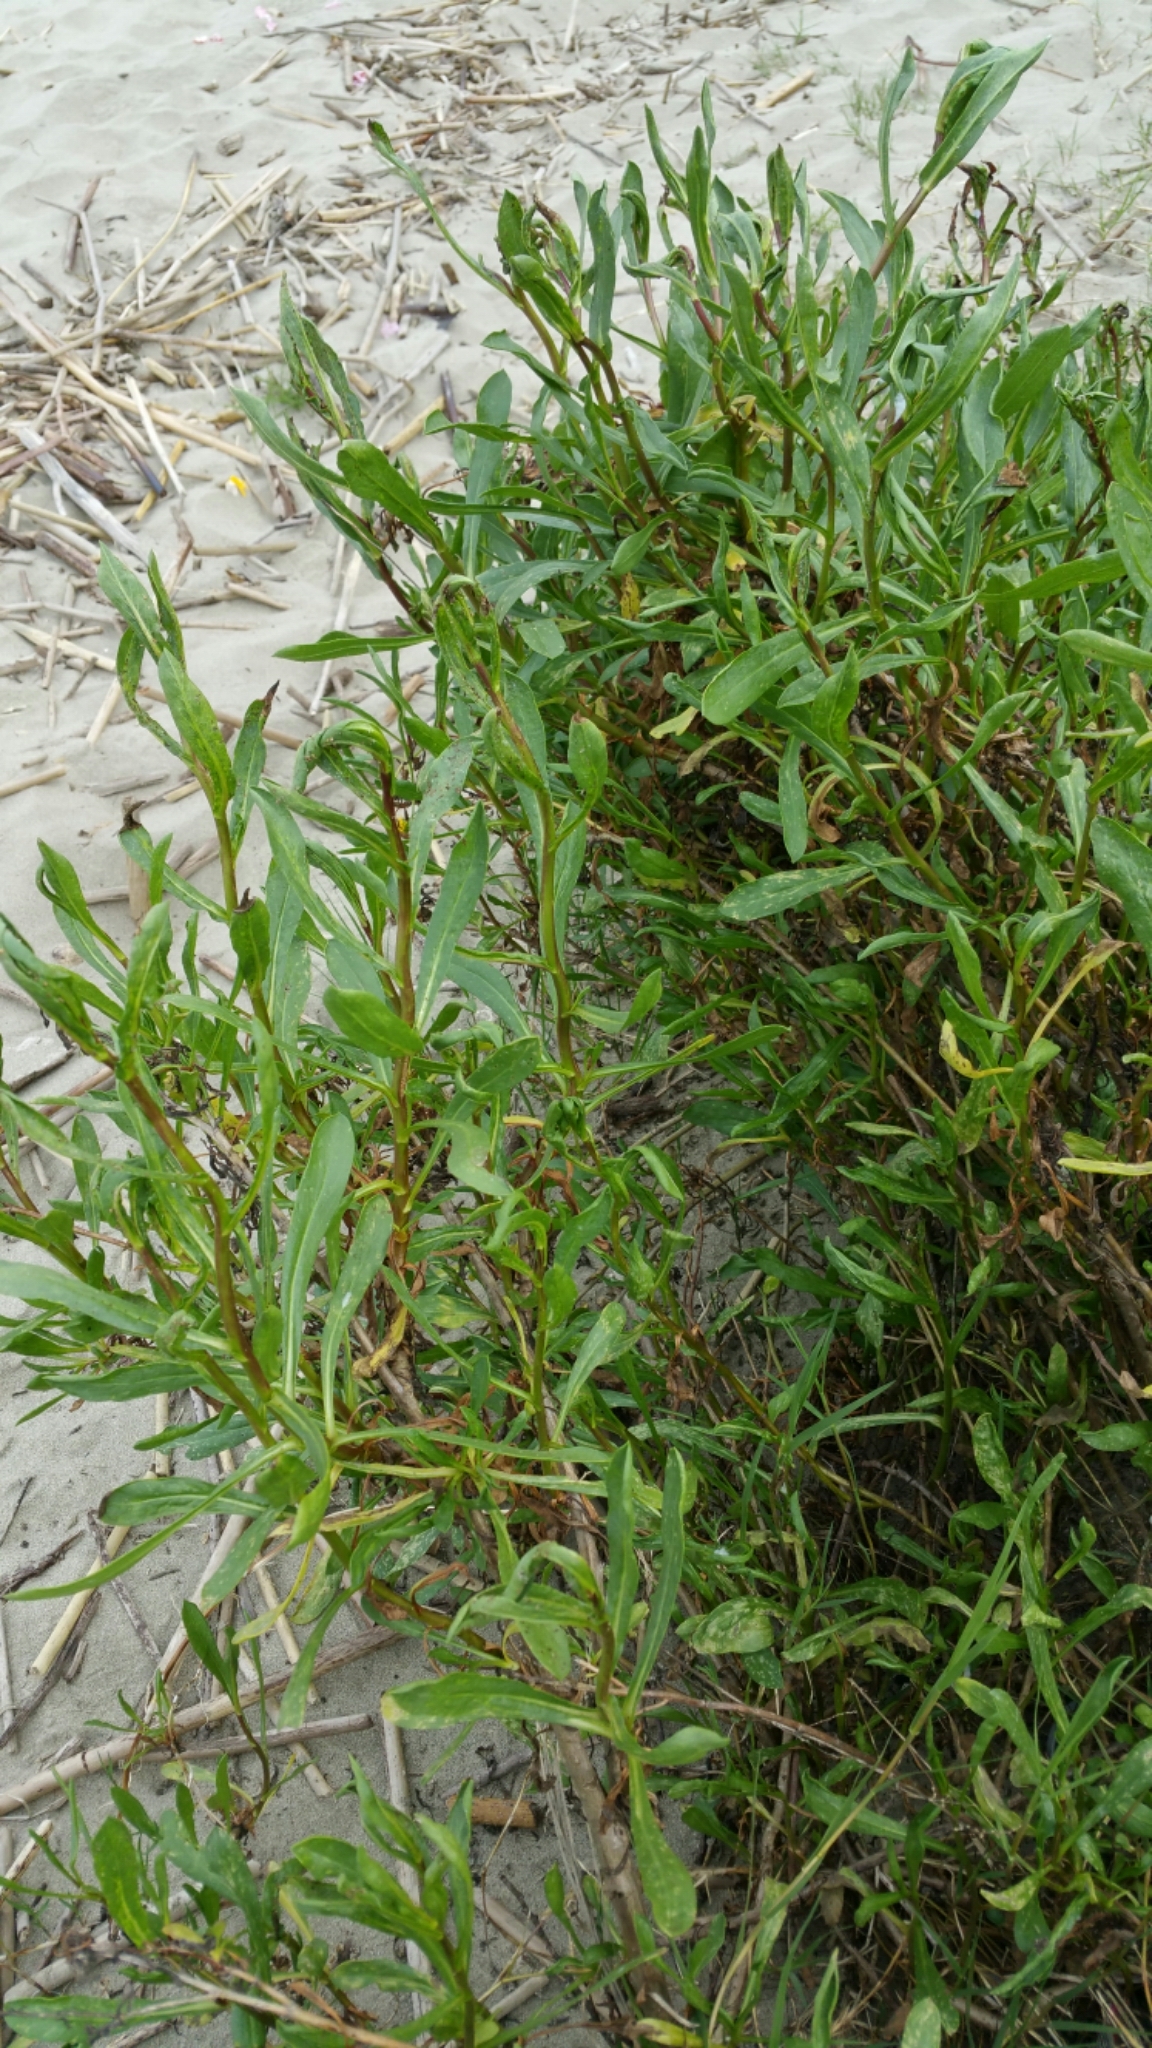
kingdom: Plantae
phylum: Tracheophyta
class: Magnoliopsida
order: Asterales
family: Asteraceae
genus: Grindelia
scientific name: Grindelia hirsutula
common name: Hairy gumweed
